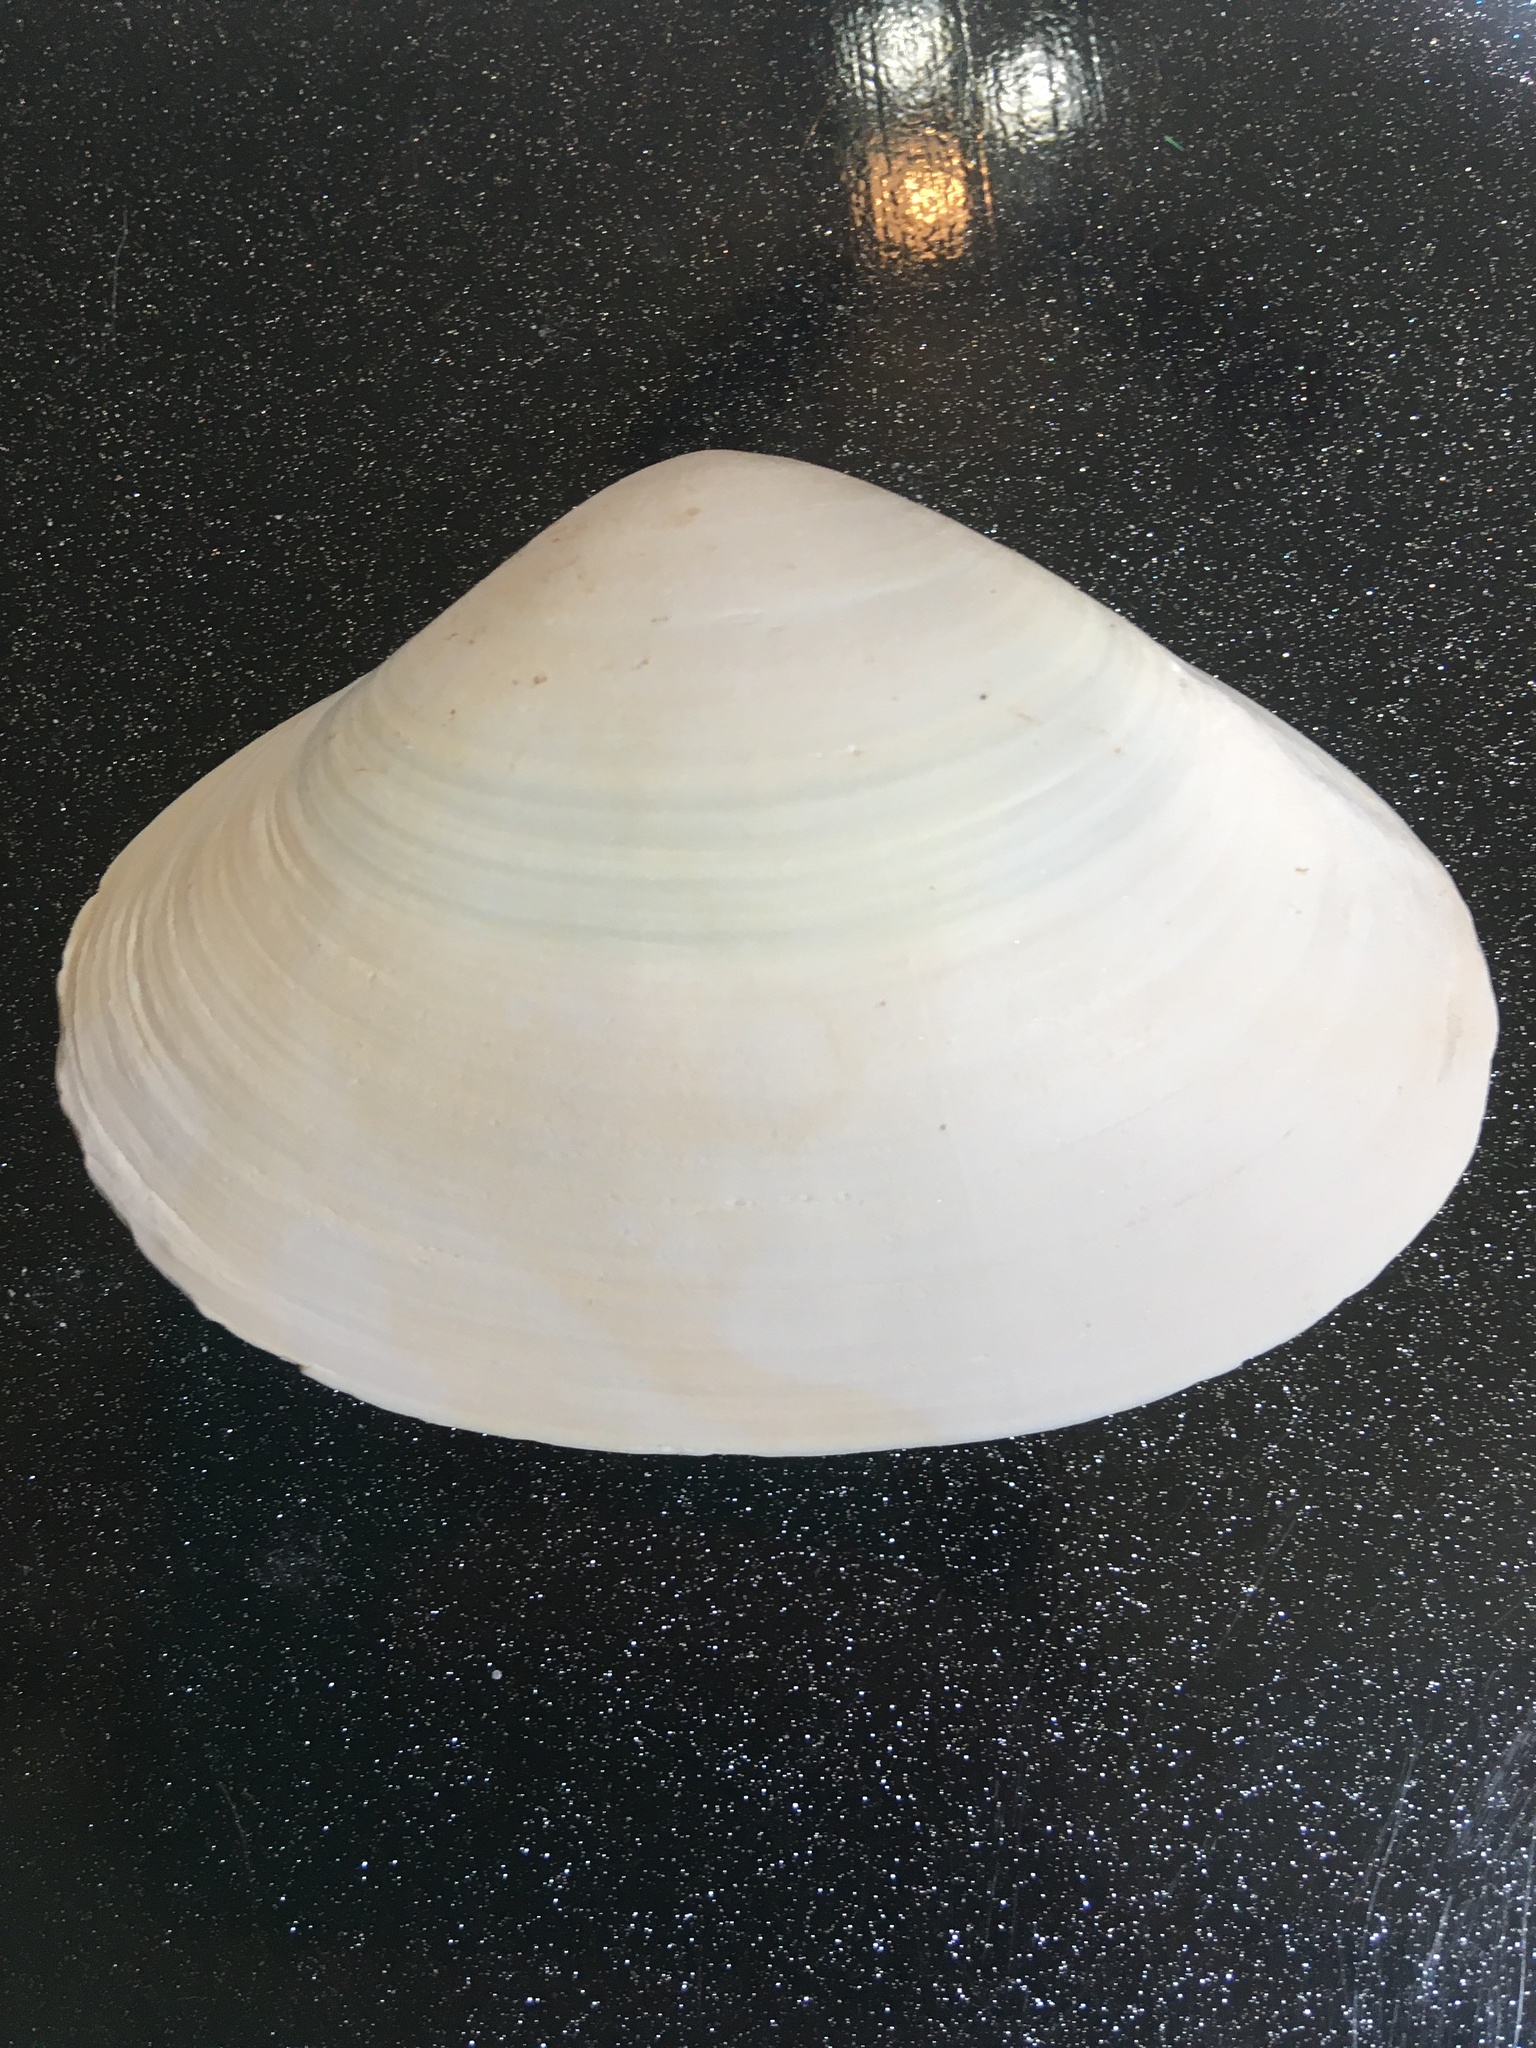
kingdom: Animalia
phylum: Mollusca
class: Bivalvia
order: Venerida
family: Mactridae
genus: Spisula
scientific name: Spisula raveneli
